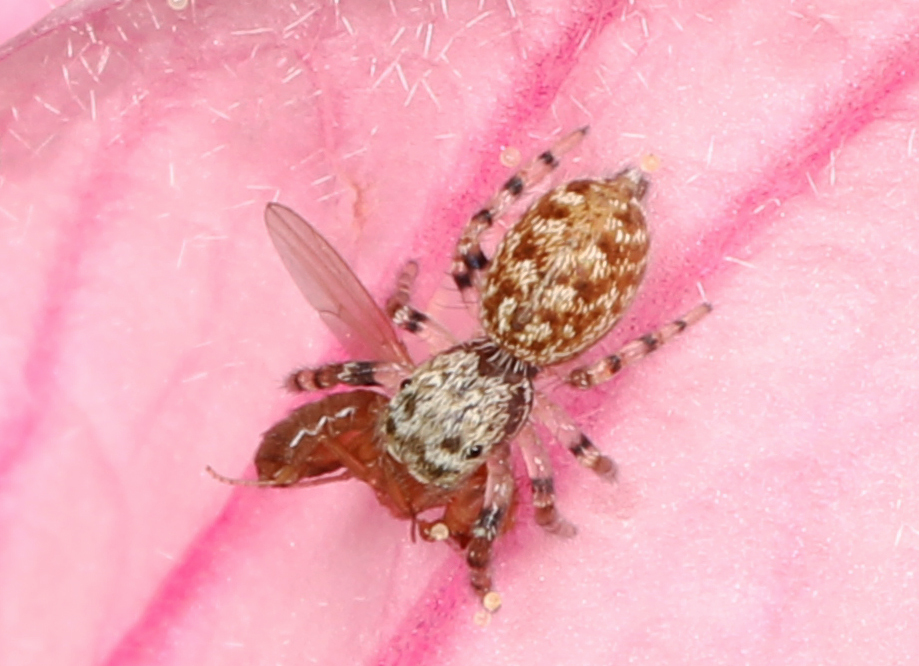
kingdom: Animalia
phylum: Arthropoda
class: Arachnida
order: Araneae
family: Salticidae
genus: Pelegrina
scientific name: Pelegrina galathea
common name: Jumping spiders
